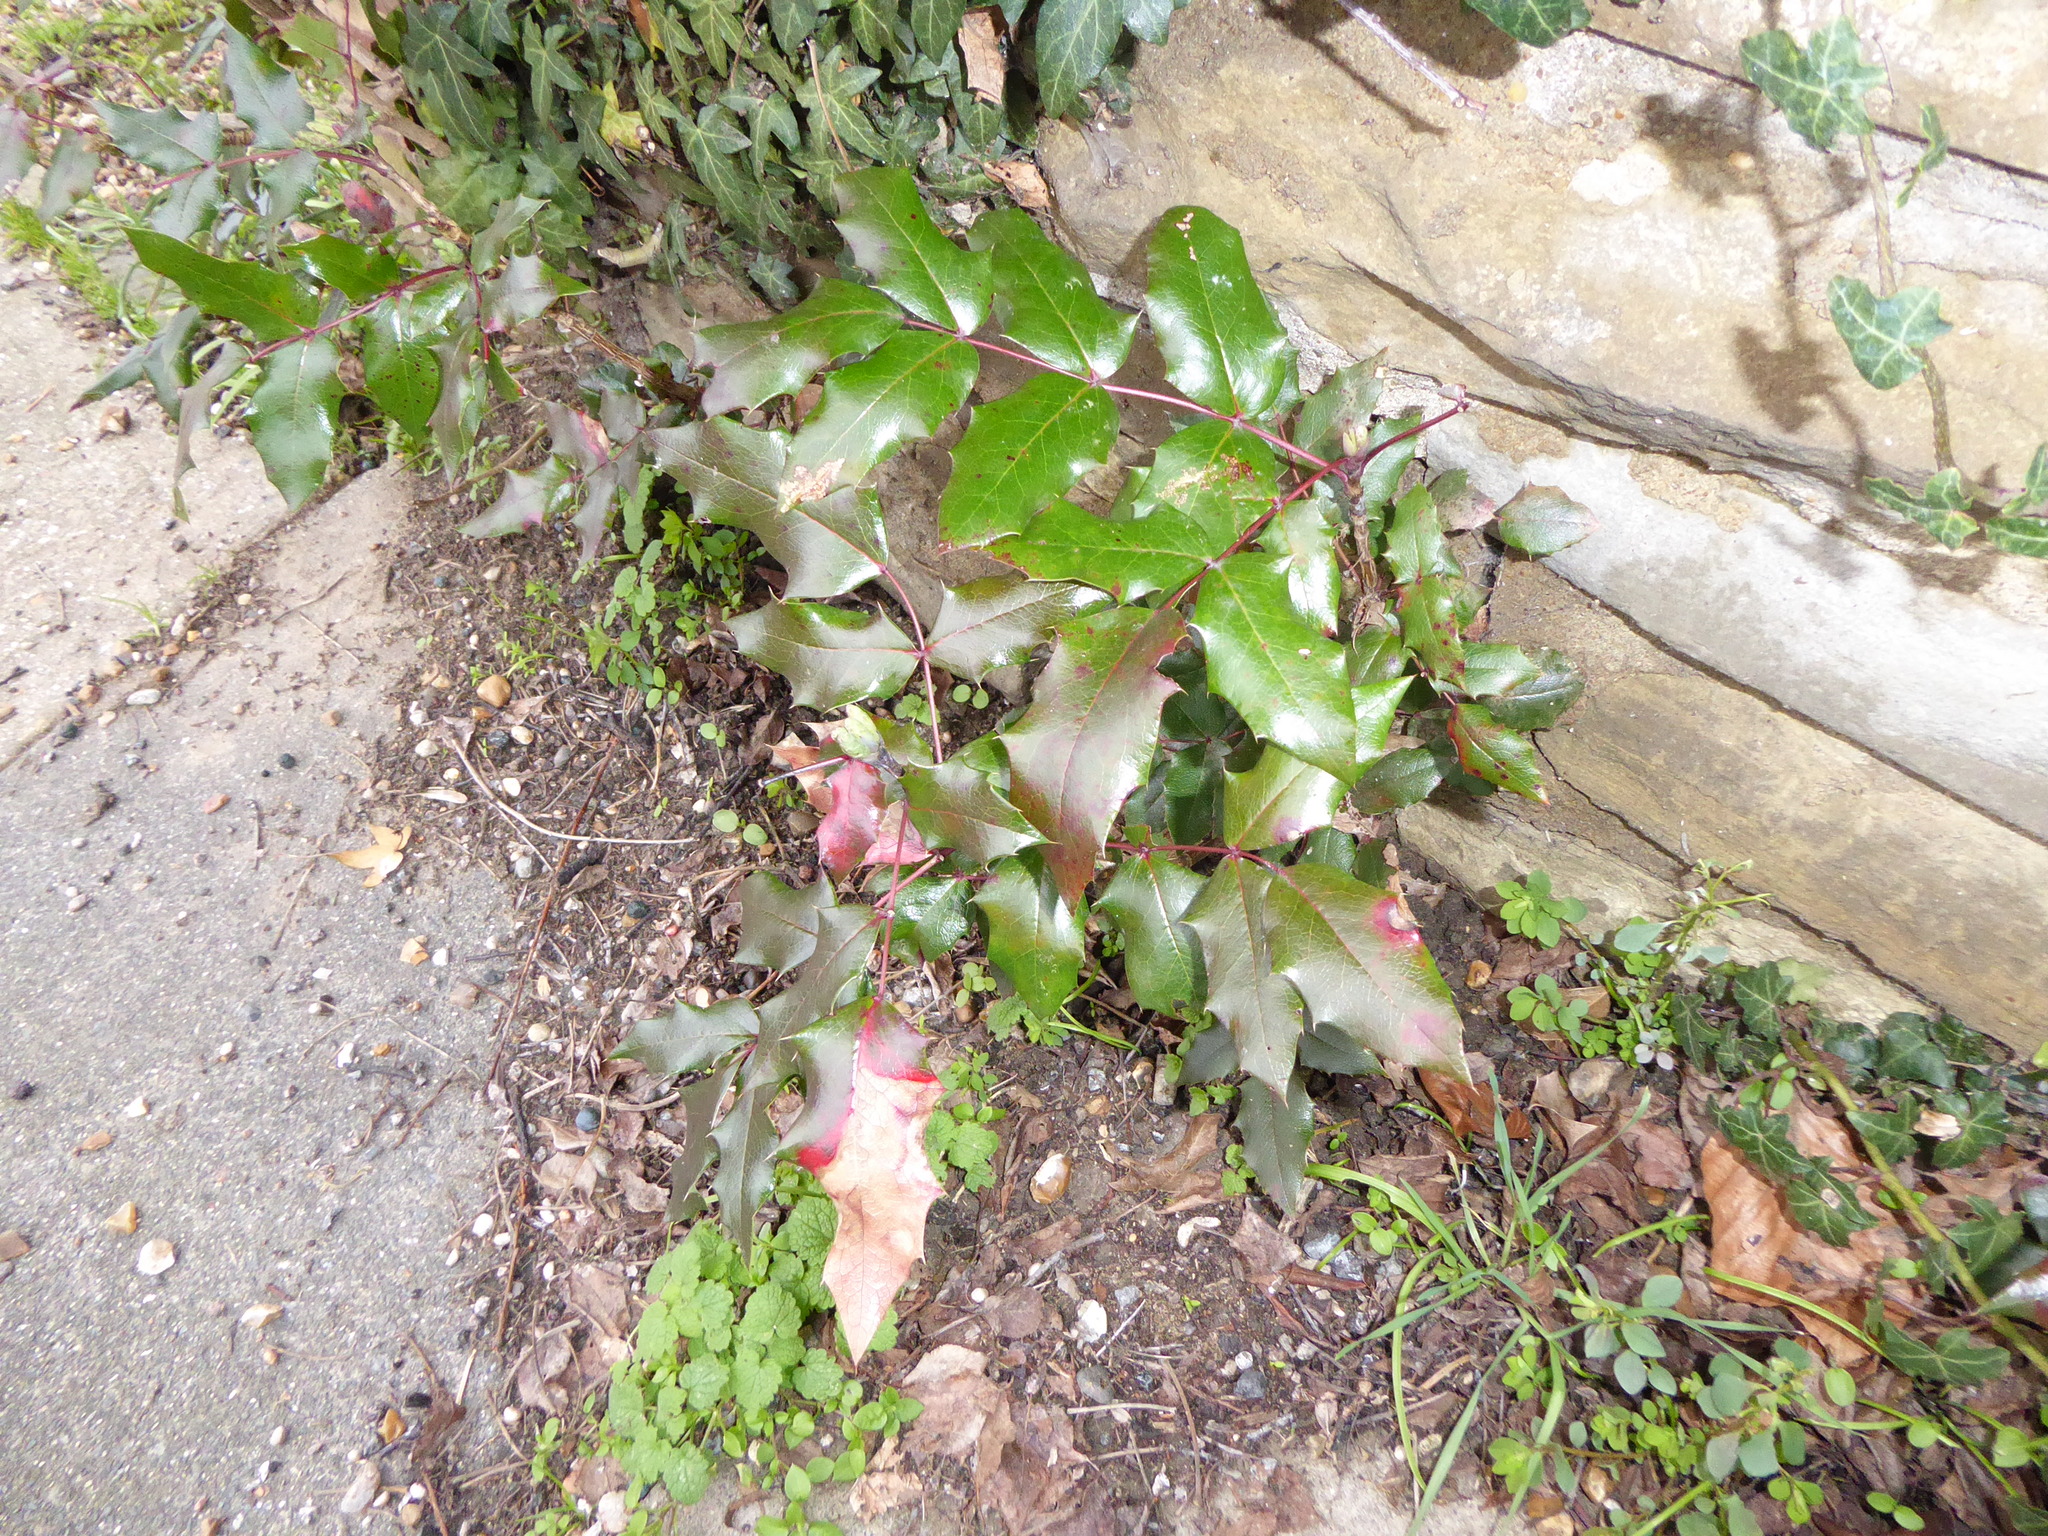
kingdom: Plantae
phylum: Tracheophyta
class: Magnoliopsida
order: Ranunculales
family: Berberidaceae
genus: Mahonia
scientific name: Mahonia aquifolium
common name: Oregon-grape
